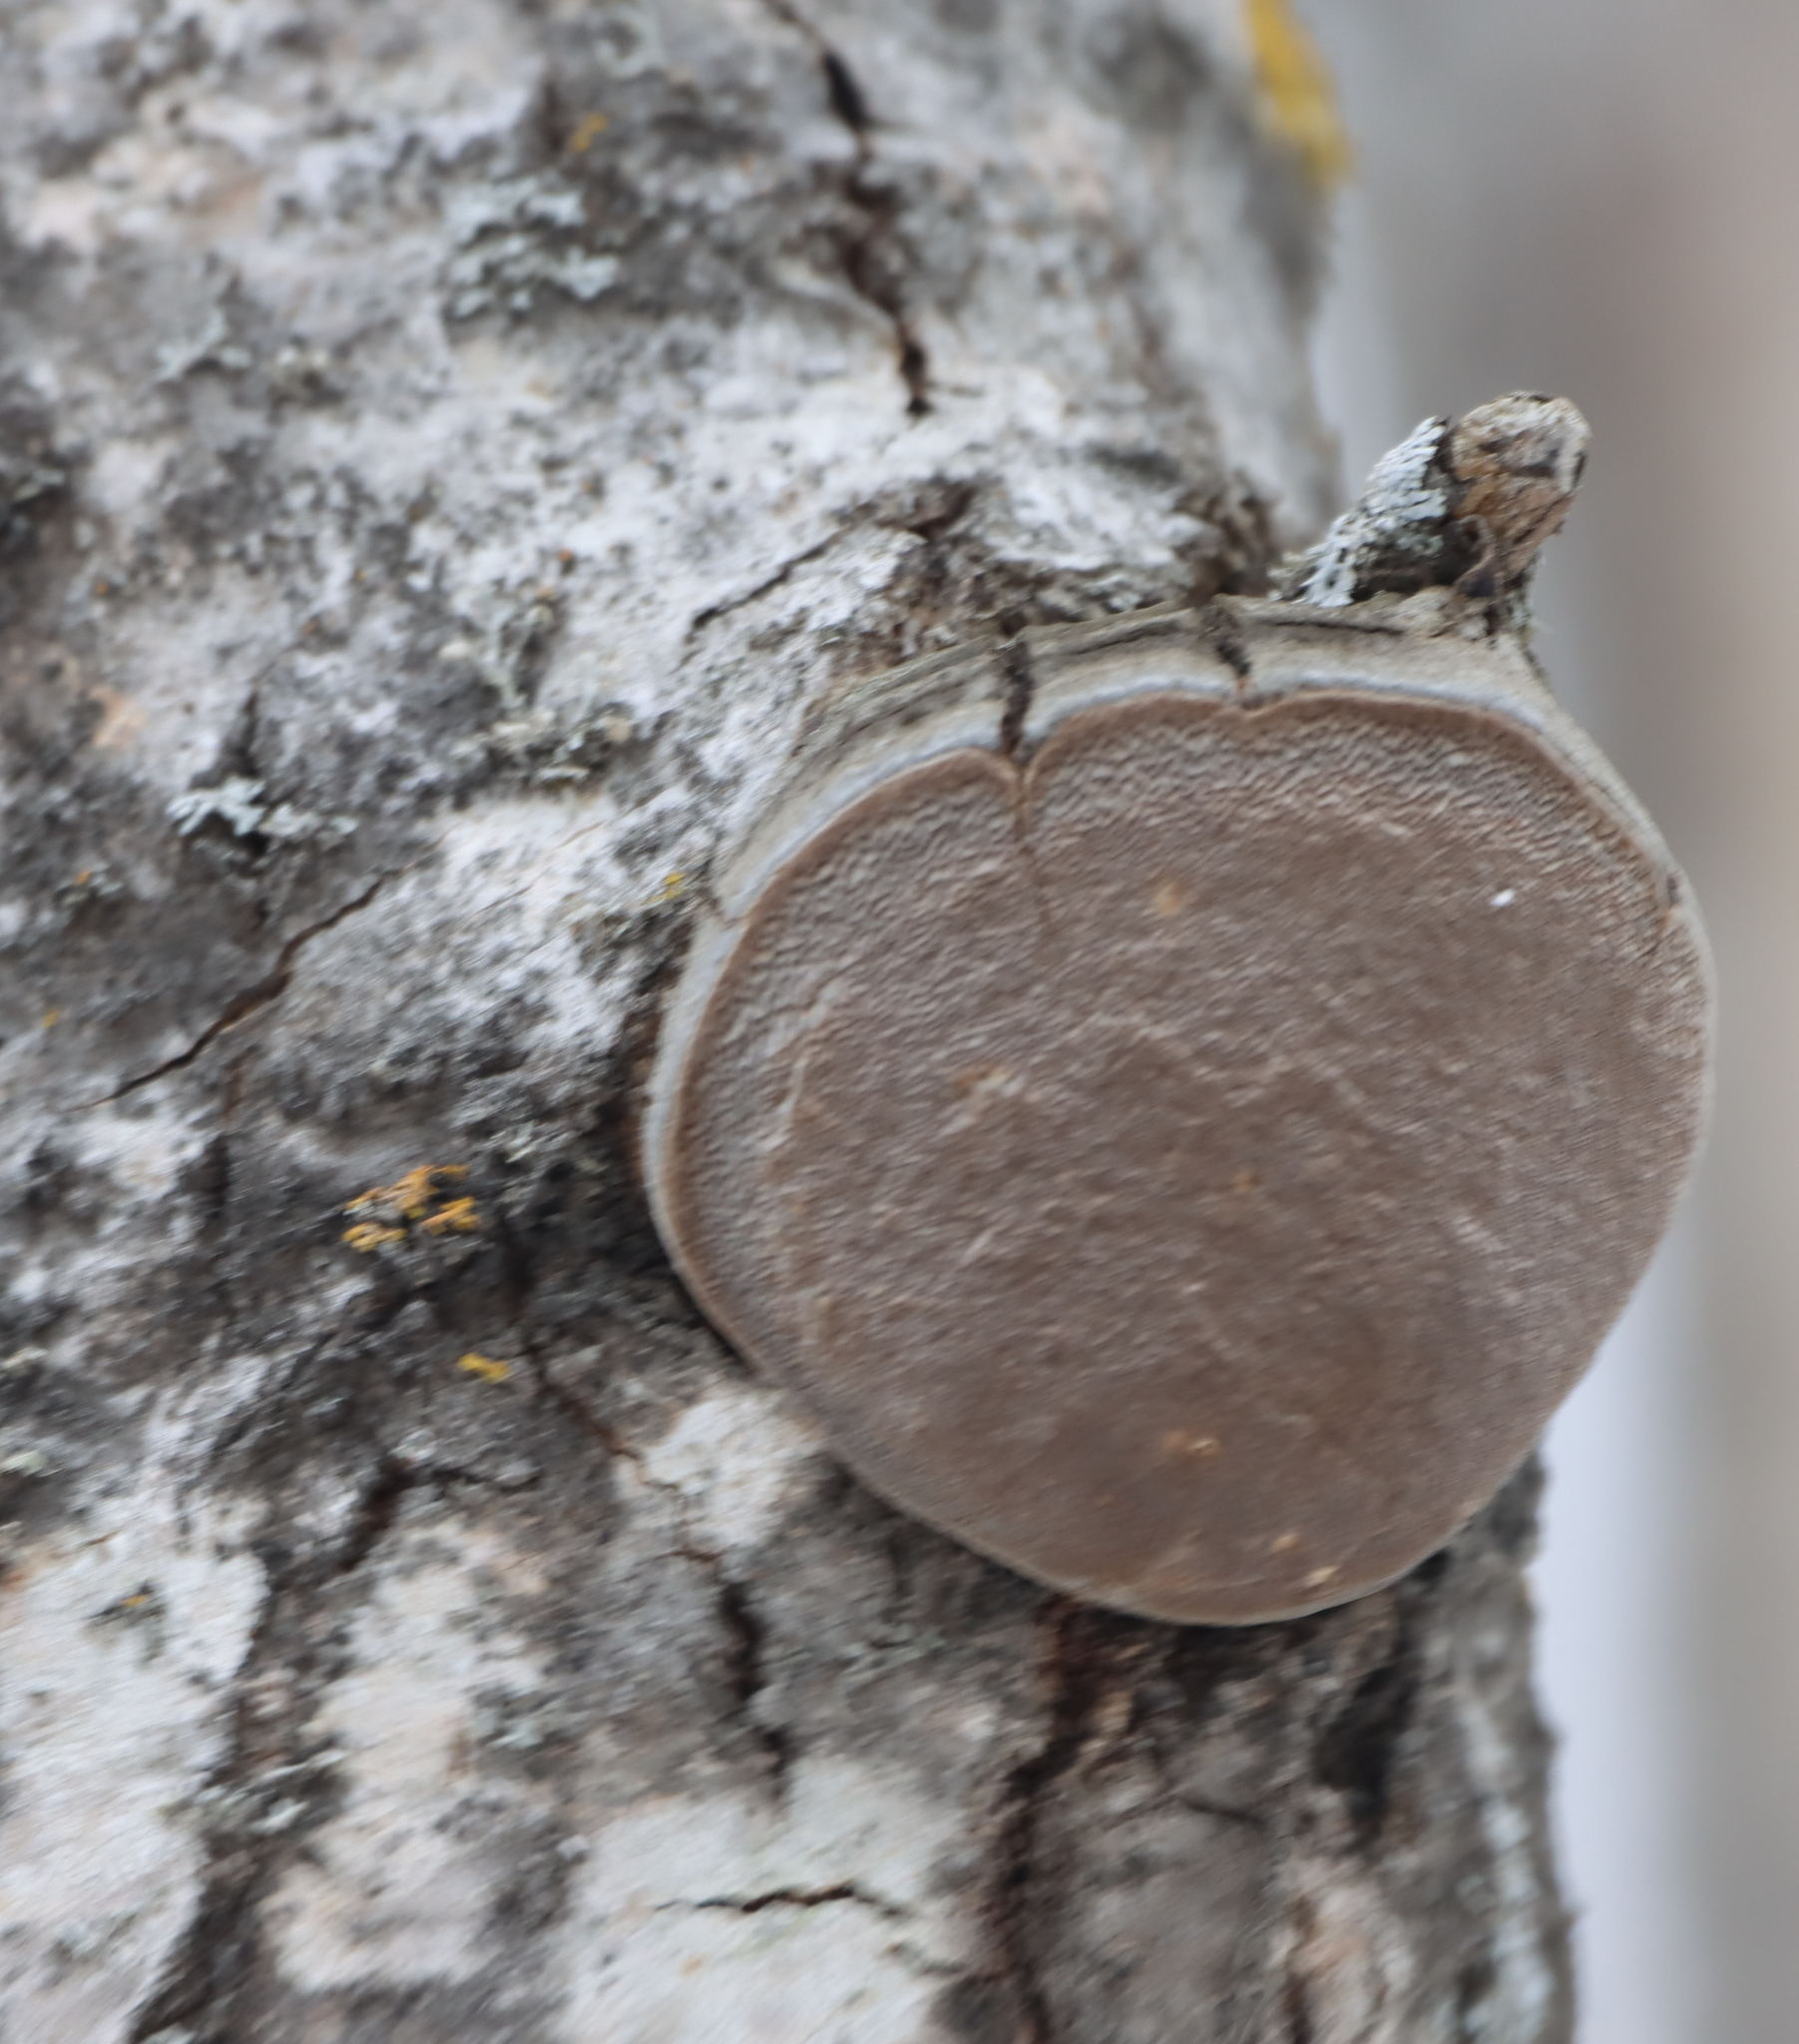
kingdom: Fungi
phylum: Basidiomycota
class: Agaricomycetes
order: Hymenochaetales
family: Hymenochaetaceae
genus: Phellinus
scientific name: Phellinus tremulae
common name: Aspen bracket
